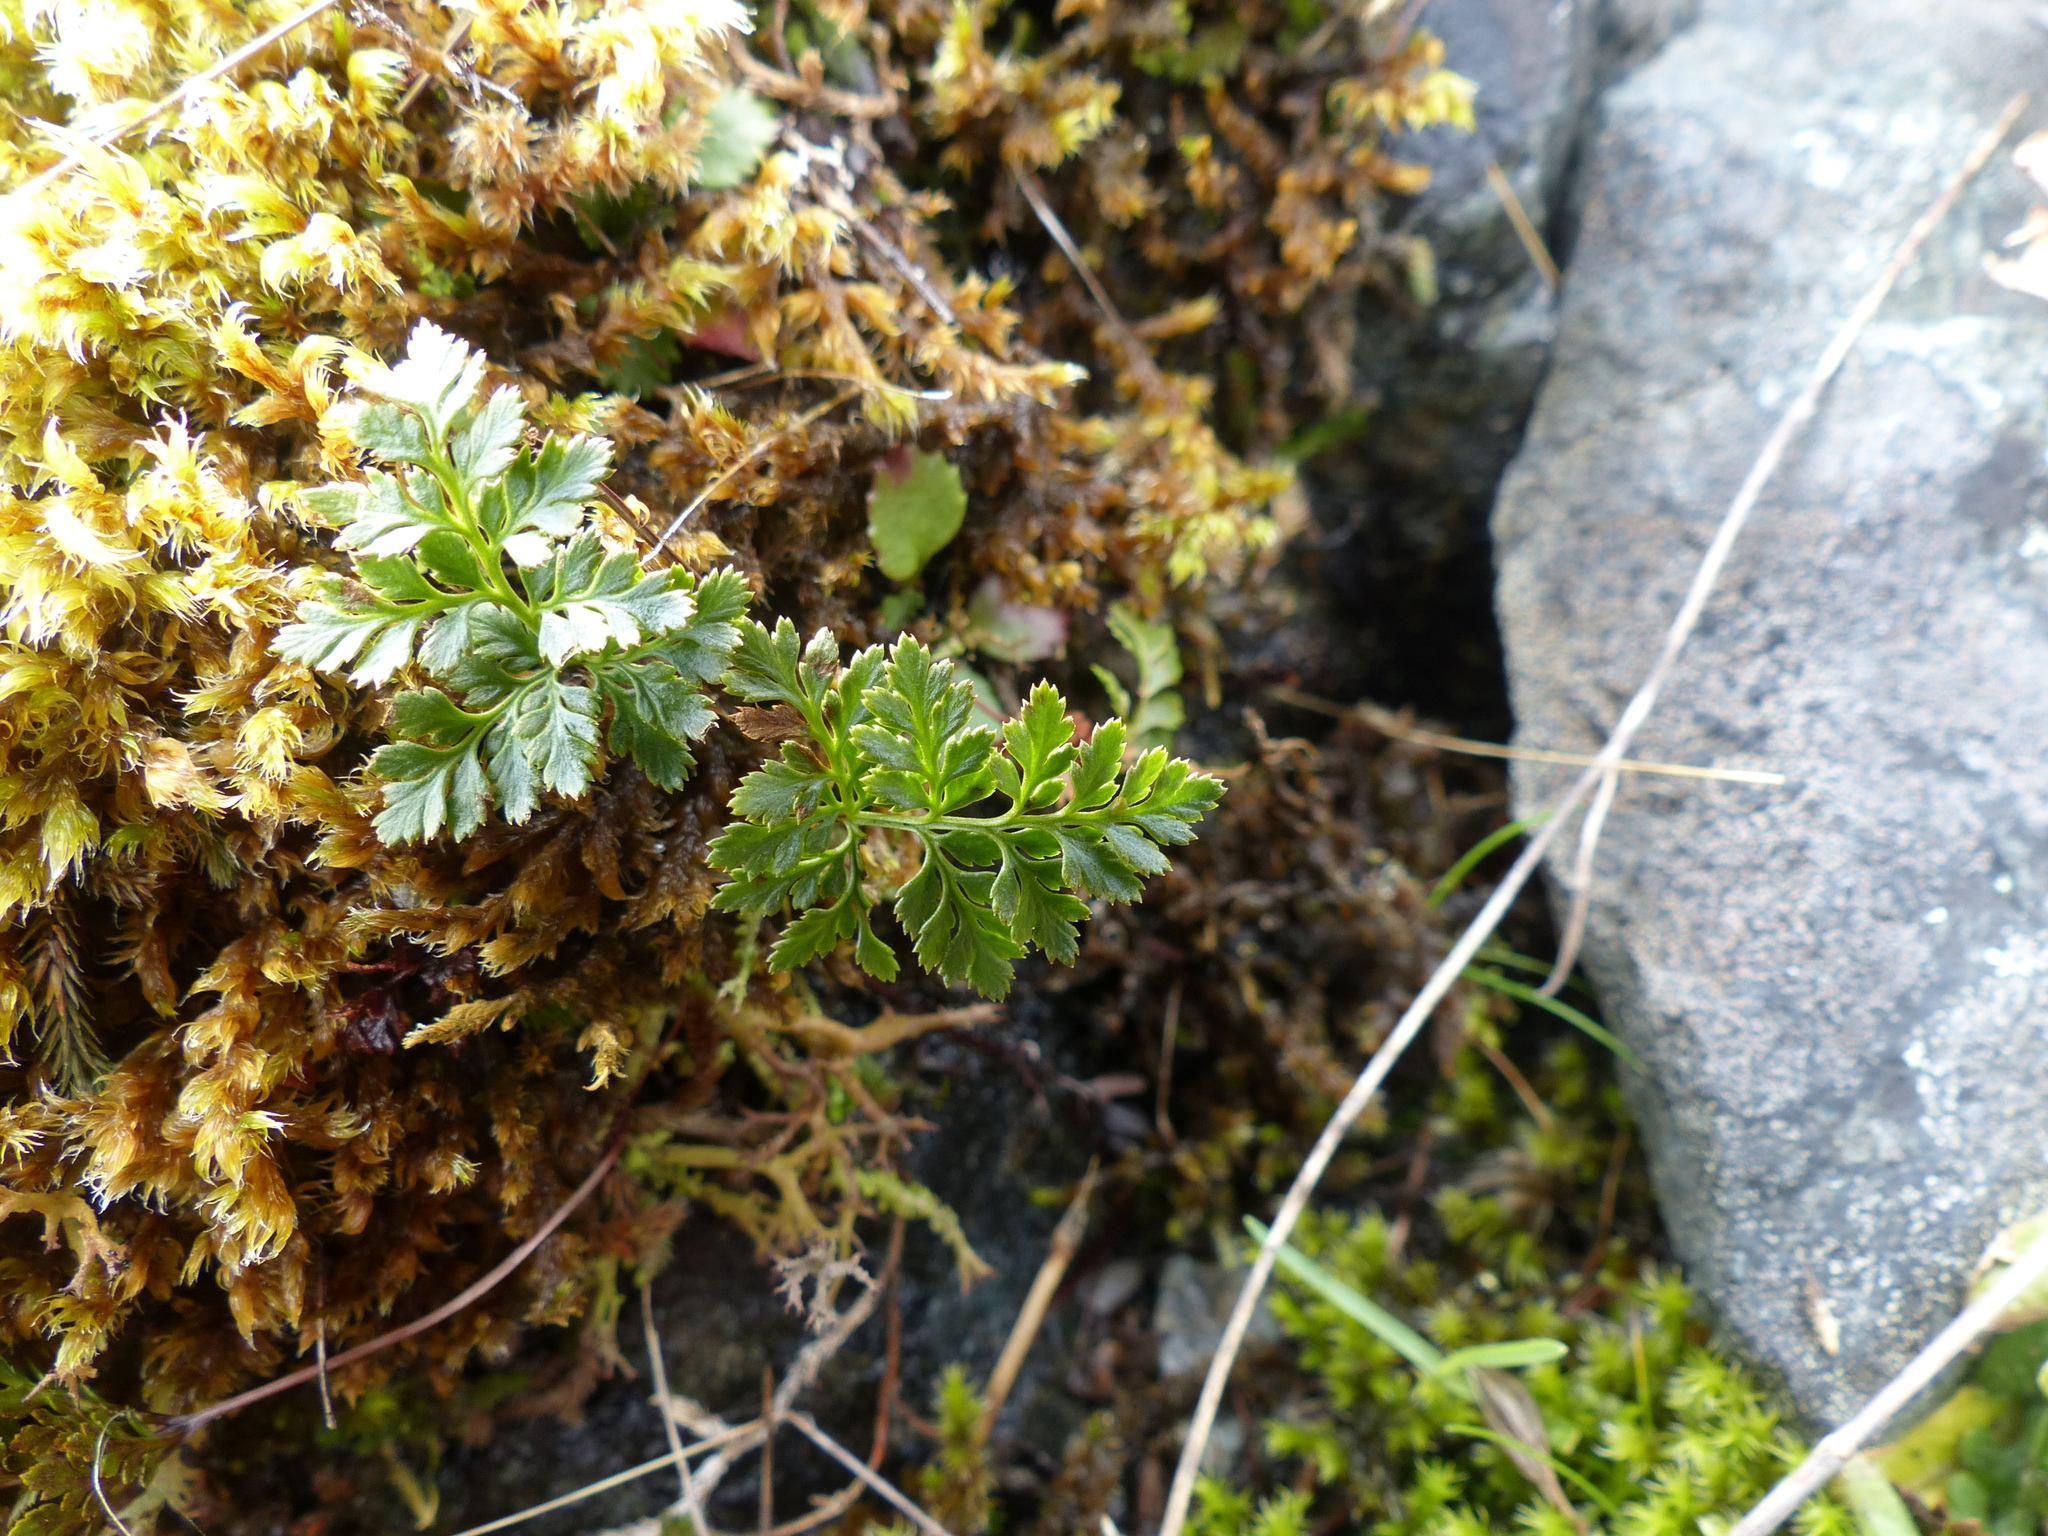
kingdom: Plantae
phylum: Tracheophyta
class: Polypodiopsida
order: Polypodiales
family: Pteridaceae
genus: Cryptogramma
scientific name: Cryptogramma acrostichoides
